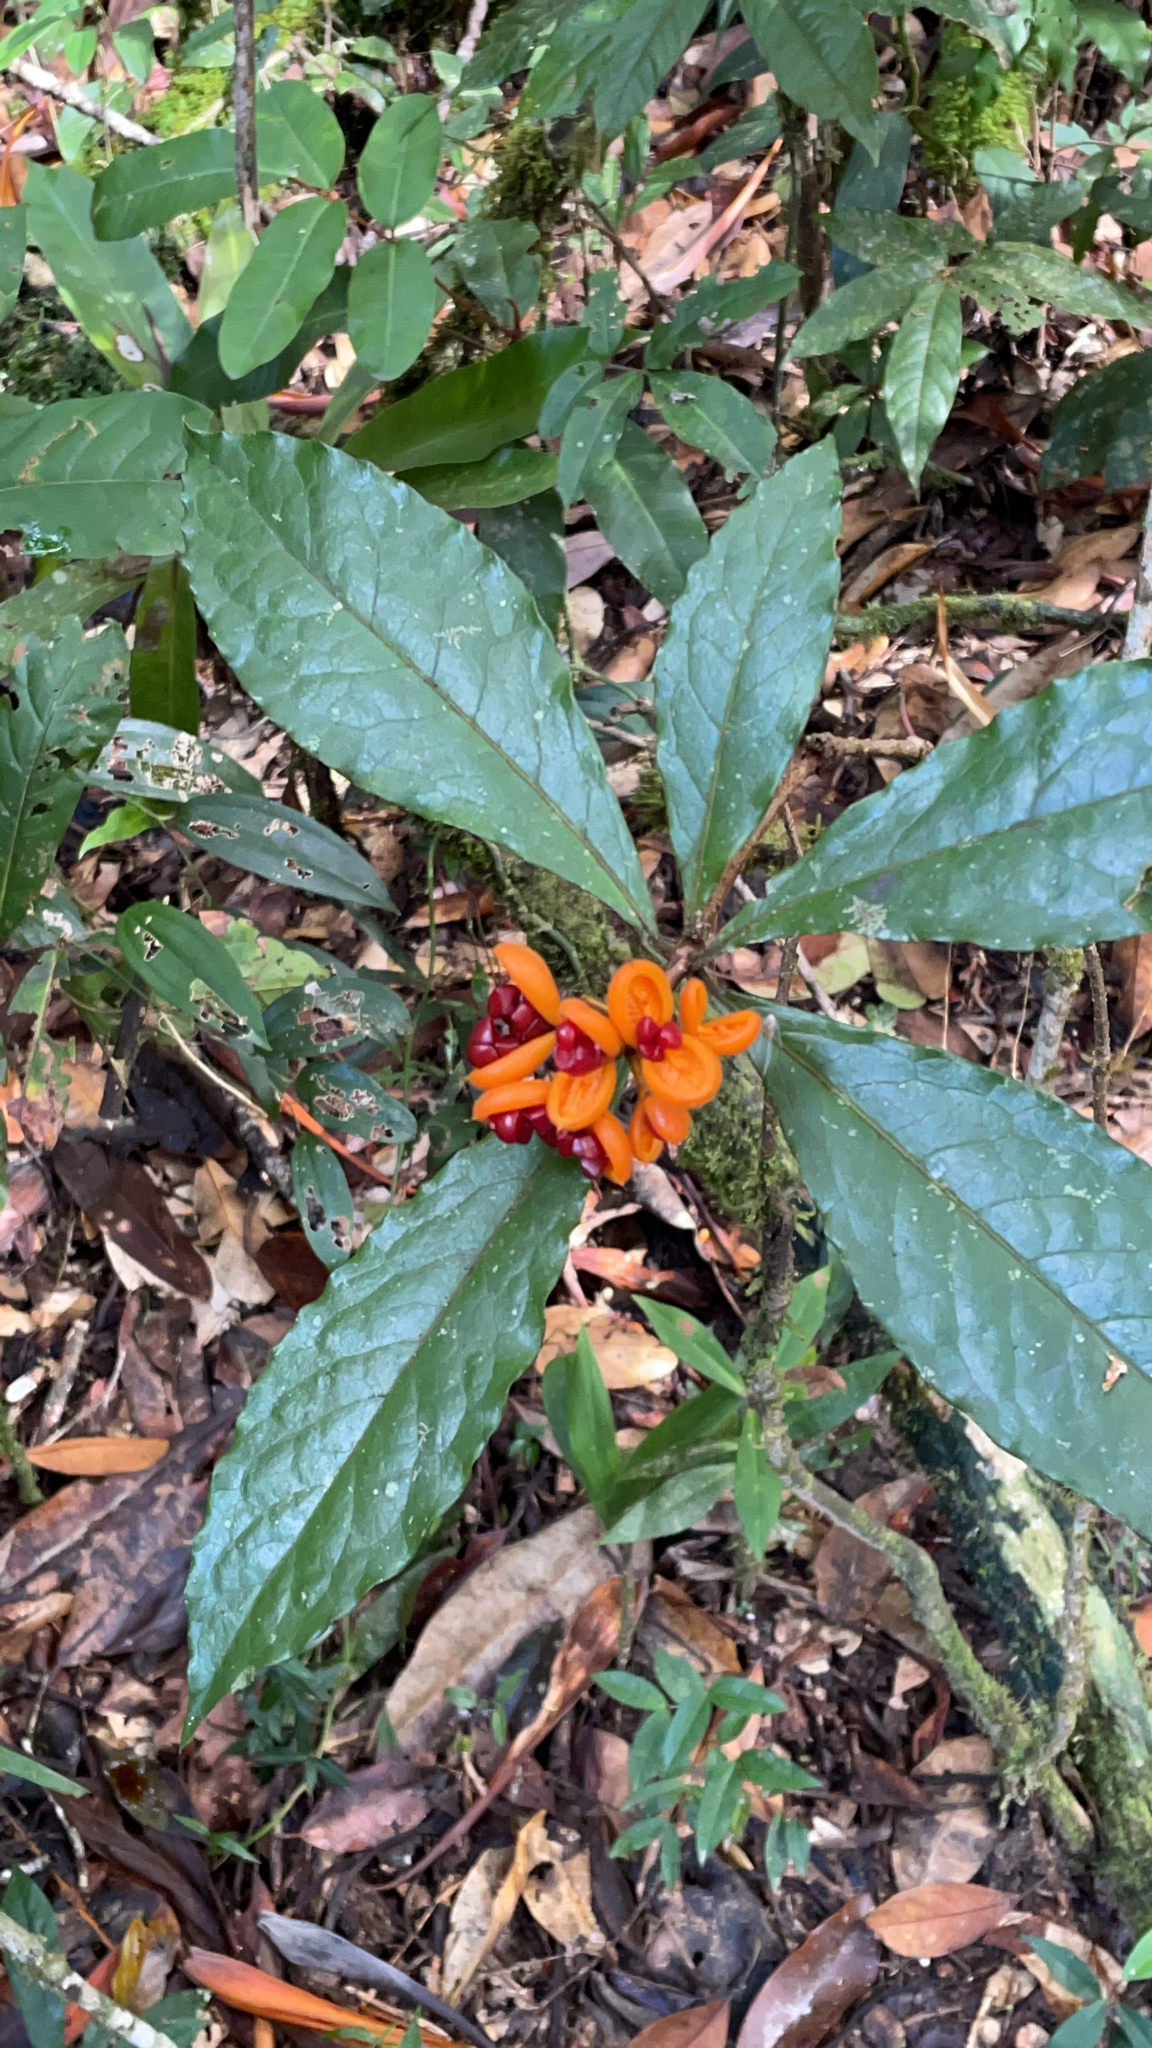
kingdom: Plantae
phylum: Tracheophyta
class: Magnoliopsida
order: Apiales
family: Pittosporaceae
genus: Pittosporum
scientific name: Pittosporum rubiginosum
